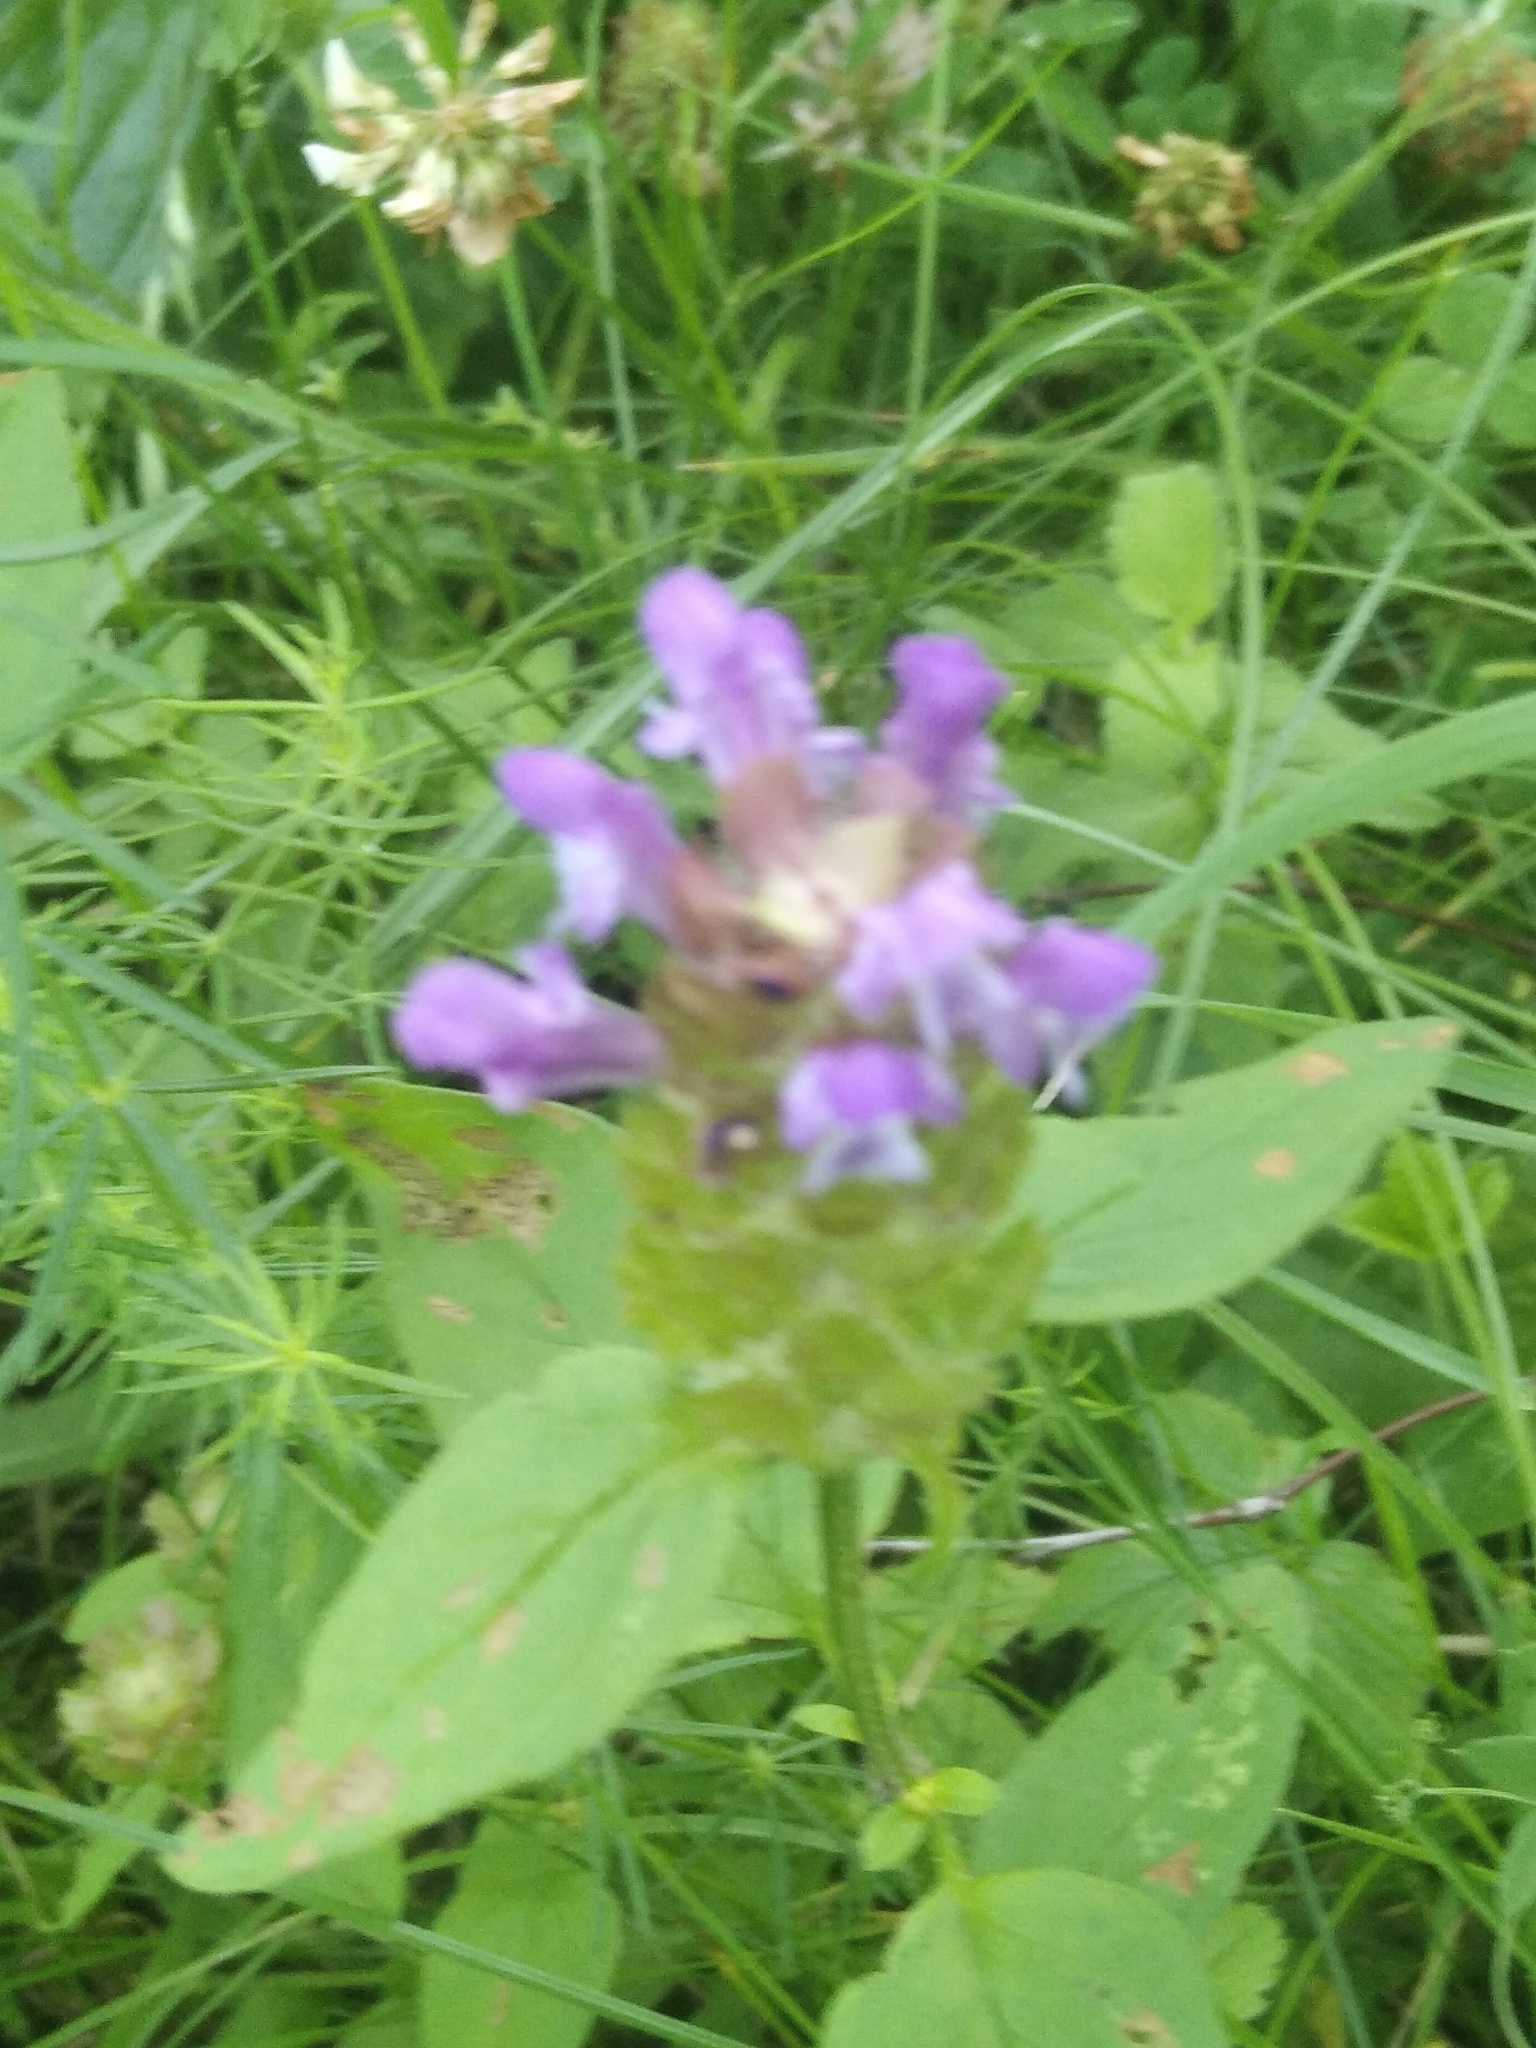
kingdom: Plantae
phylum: Tracheophyta
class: Magnoliopsida
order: Lamiales
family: Lamiaceae
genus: Prunella
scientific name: Prunella vulgaris
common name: Heal-all
